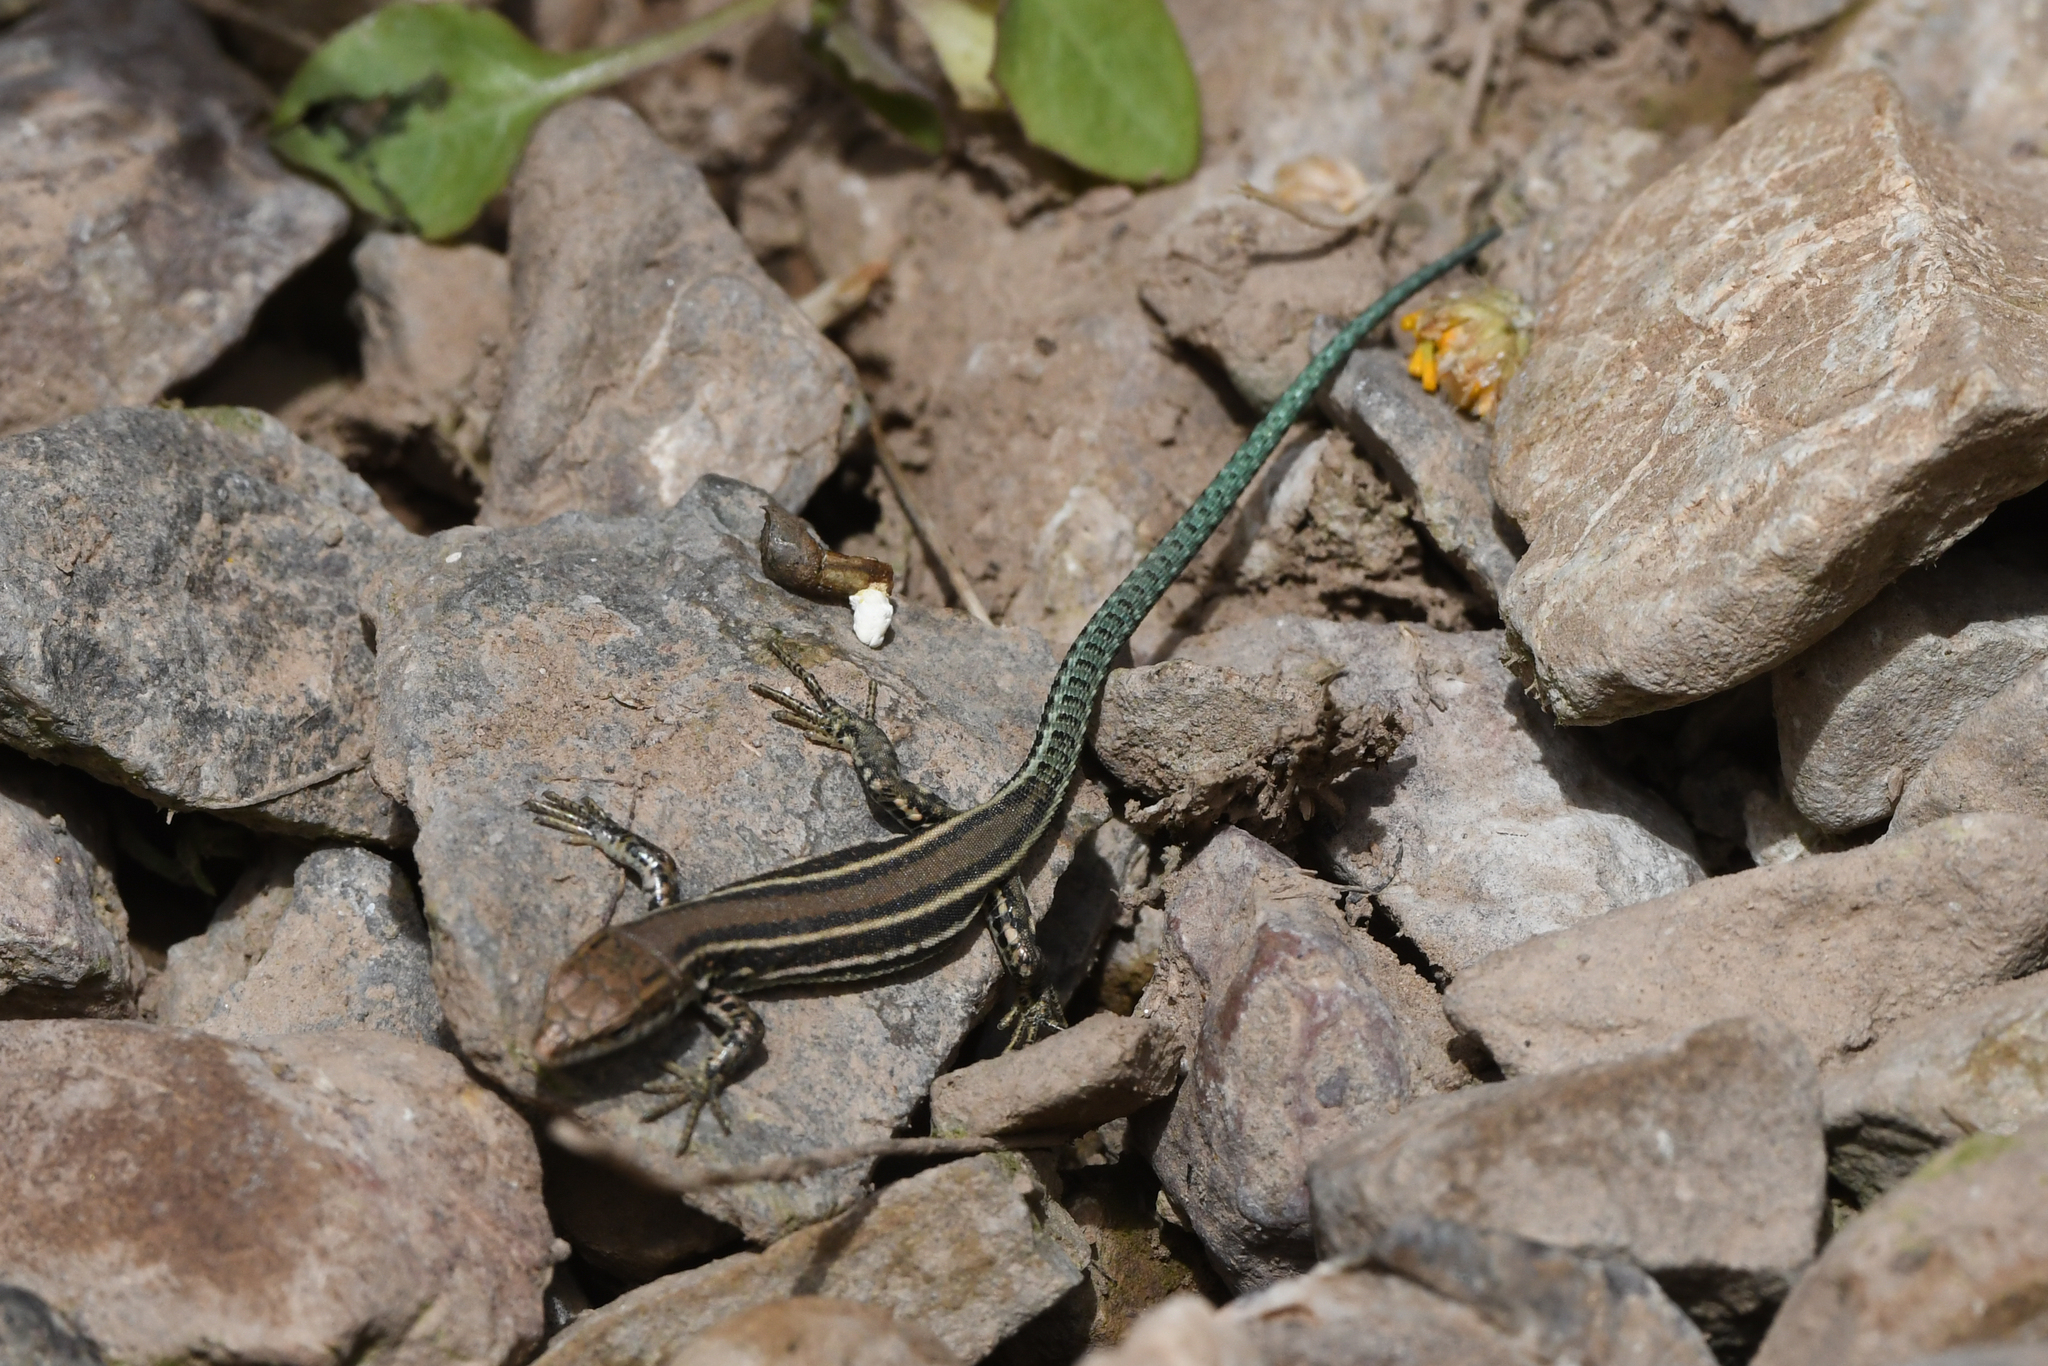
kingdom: Animalia
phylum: Chordata
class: Squamata
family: Lacertidae
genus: Podarcis
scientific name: Podarcis vaucheri
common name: Vaucher's wall lizard
